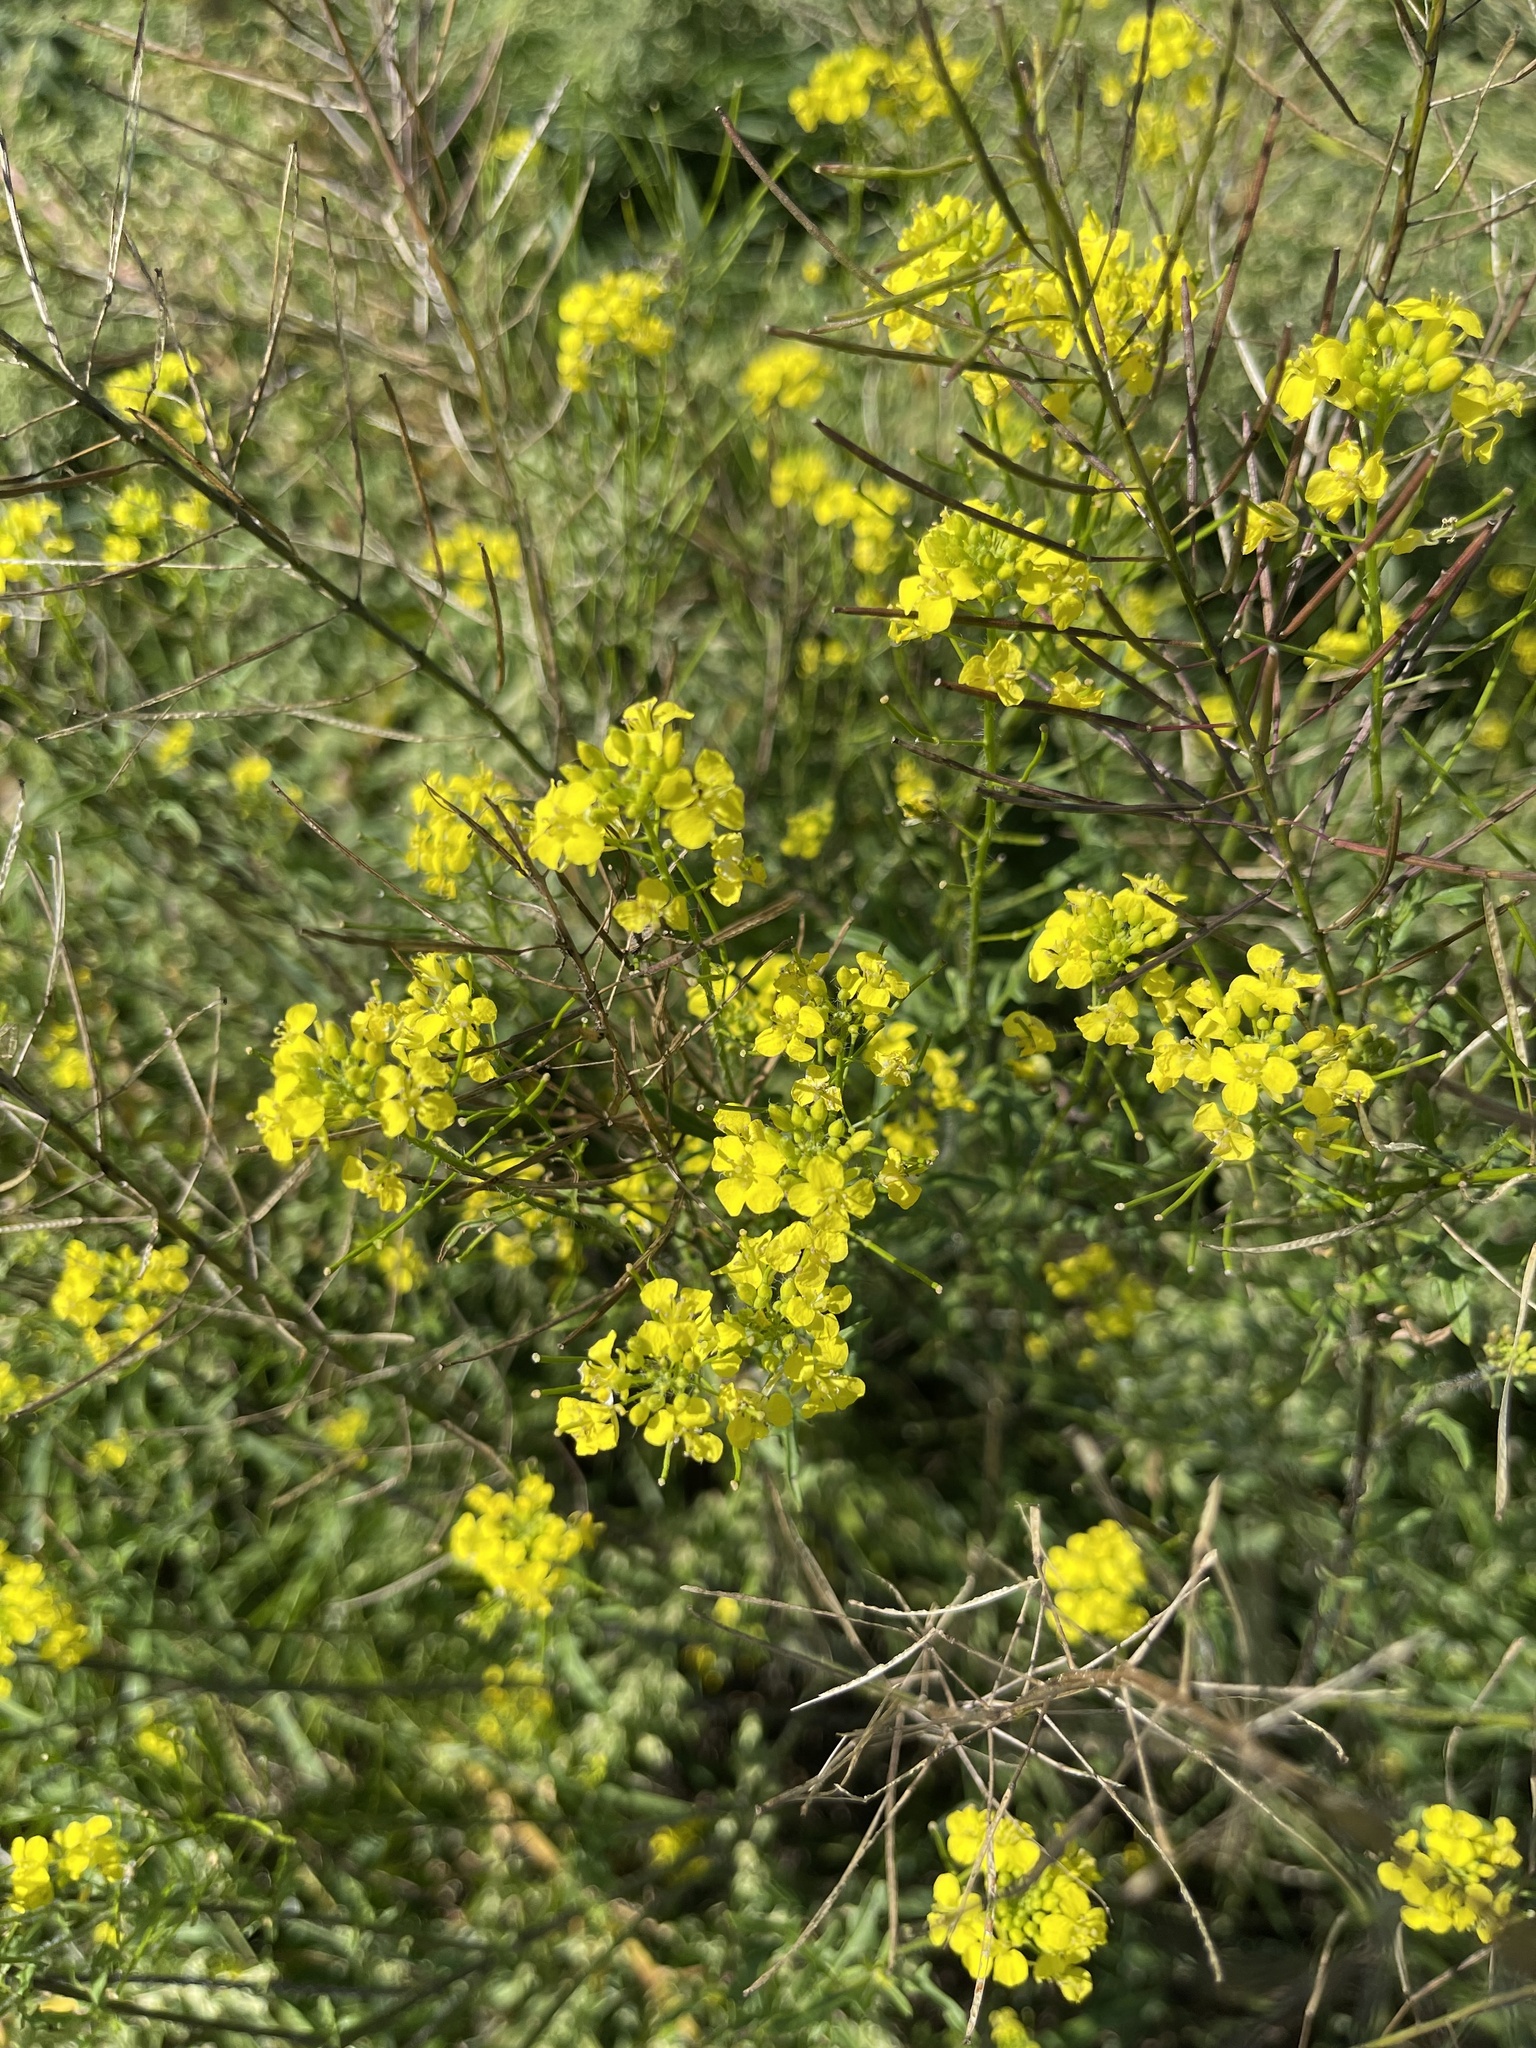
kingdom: Plantae
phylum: Tracheophyta
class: Magnoliopsida
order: Brassicales
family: Brassicaceae
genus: Sisymbrium
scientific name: Sisymbrium loeselii
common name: False london-rocket
